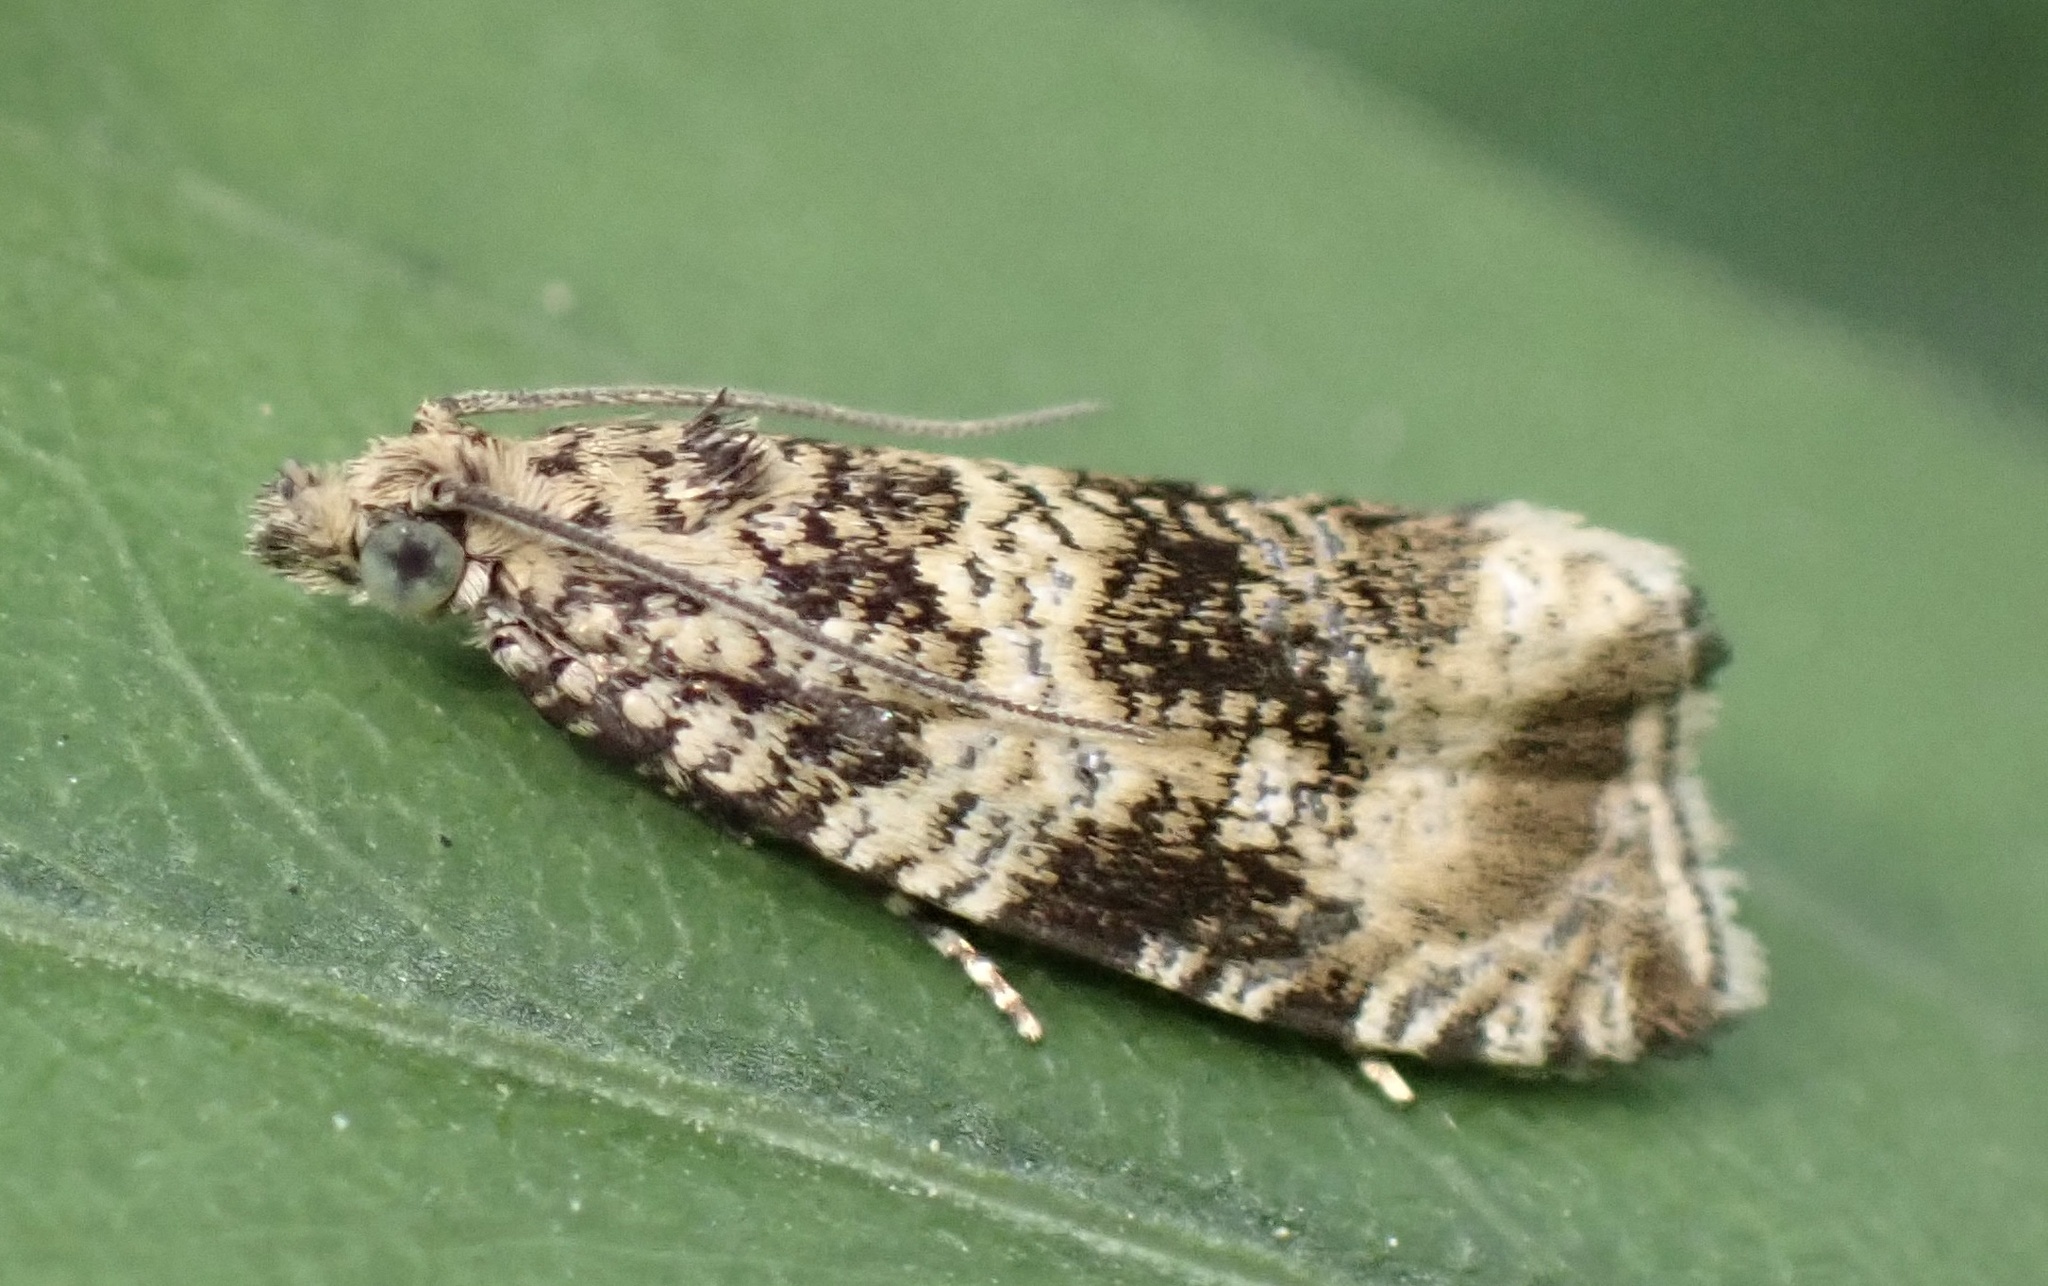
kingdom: Animalia
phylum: Arthropoda
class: Insecta
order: Lepidoptera
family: Tortricidae
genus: Syricoris
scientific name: Syricoris lacunana
